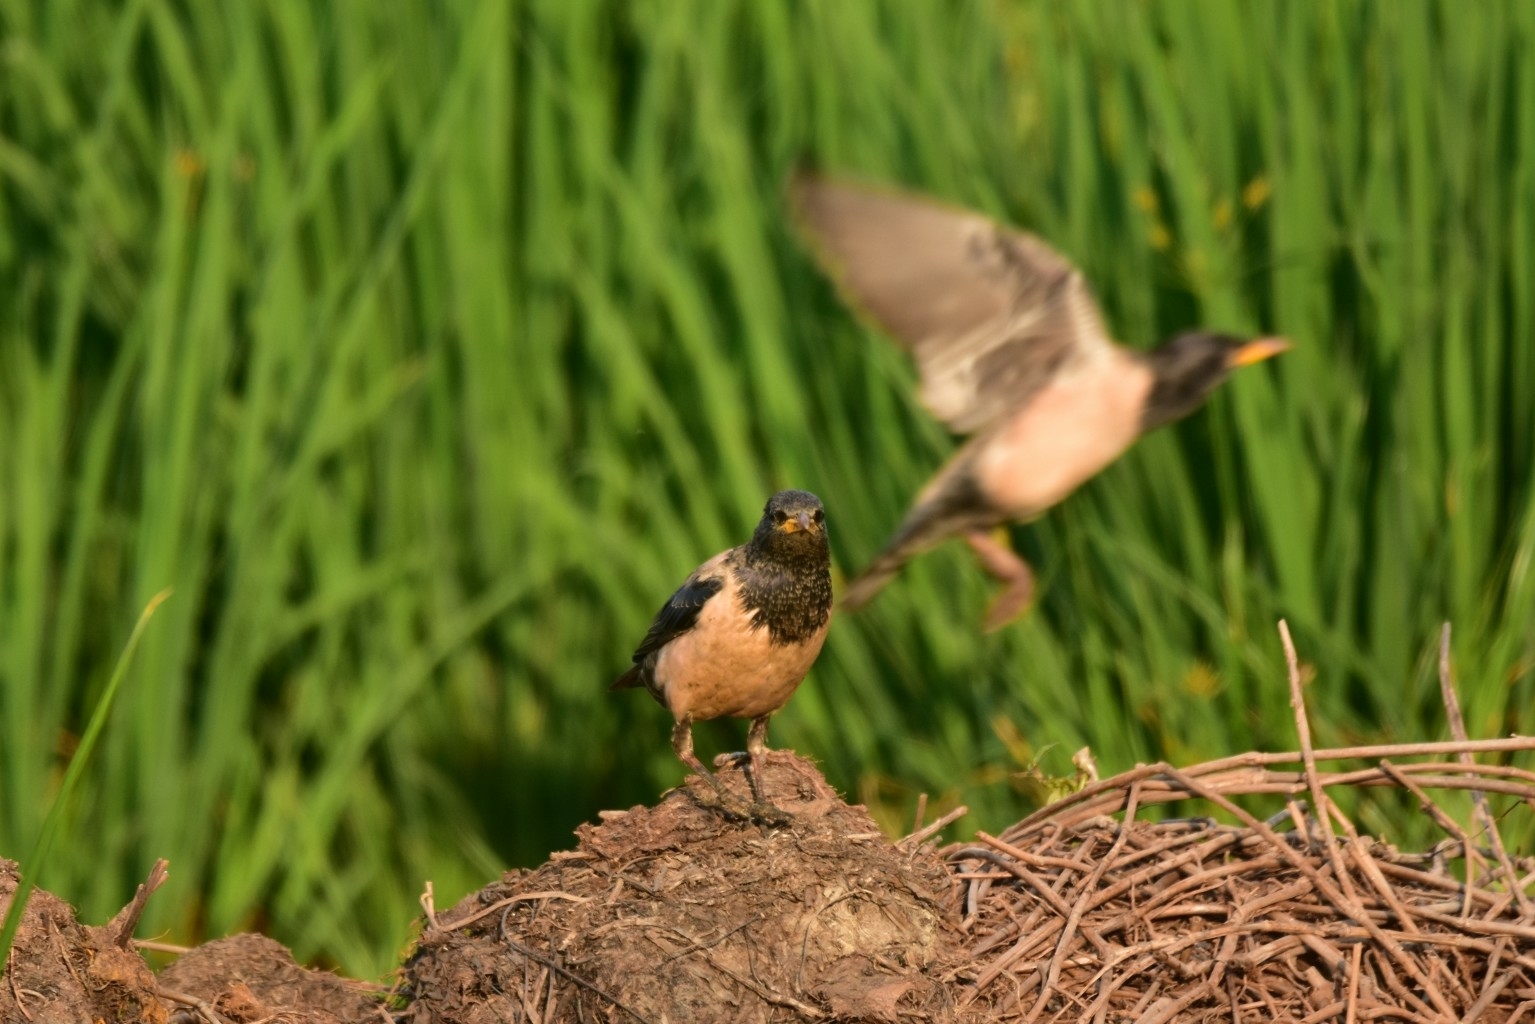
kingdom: Animalia
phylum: Chordata
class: Aves
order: Passeriformes
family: Sturnidae
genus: Pastor
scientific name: Pastor roseus
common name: Rosy starling
